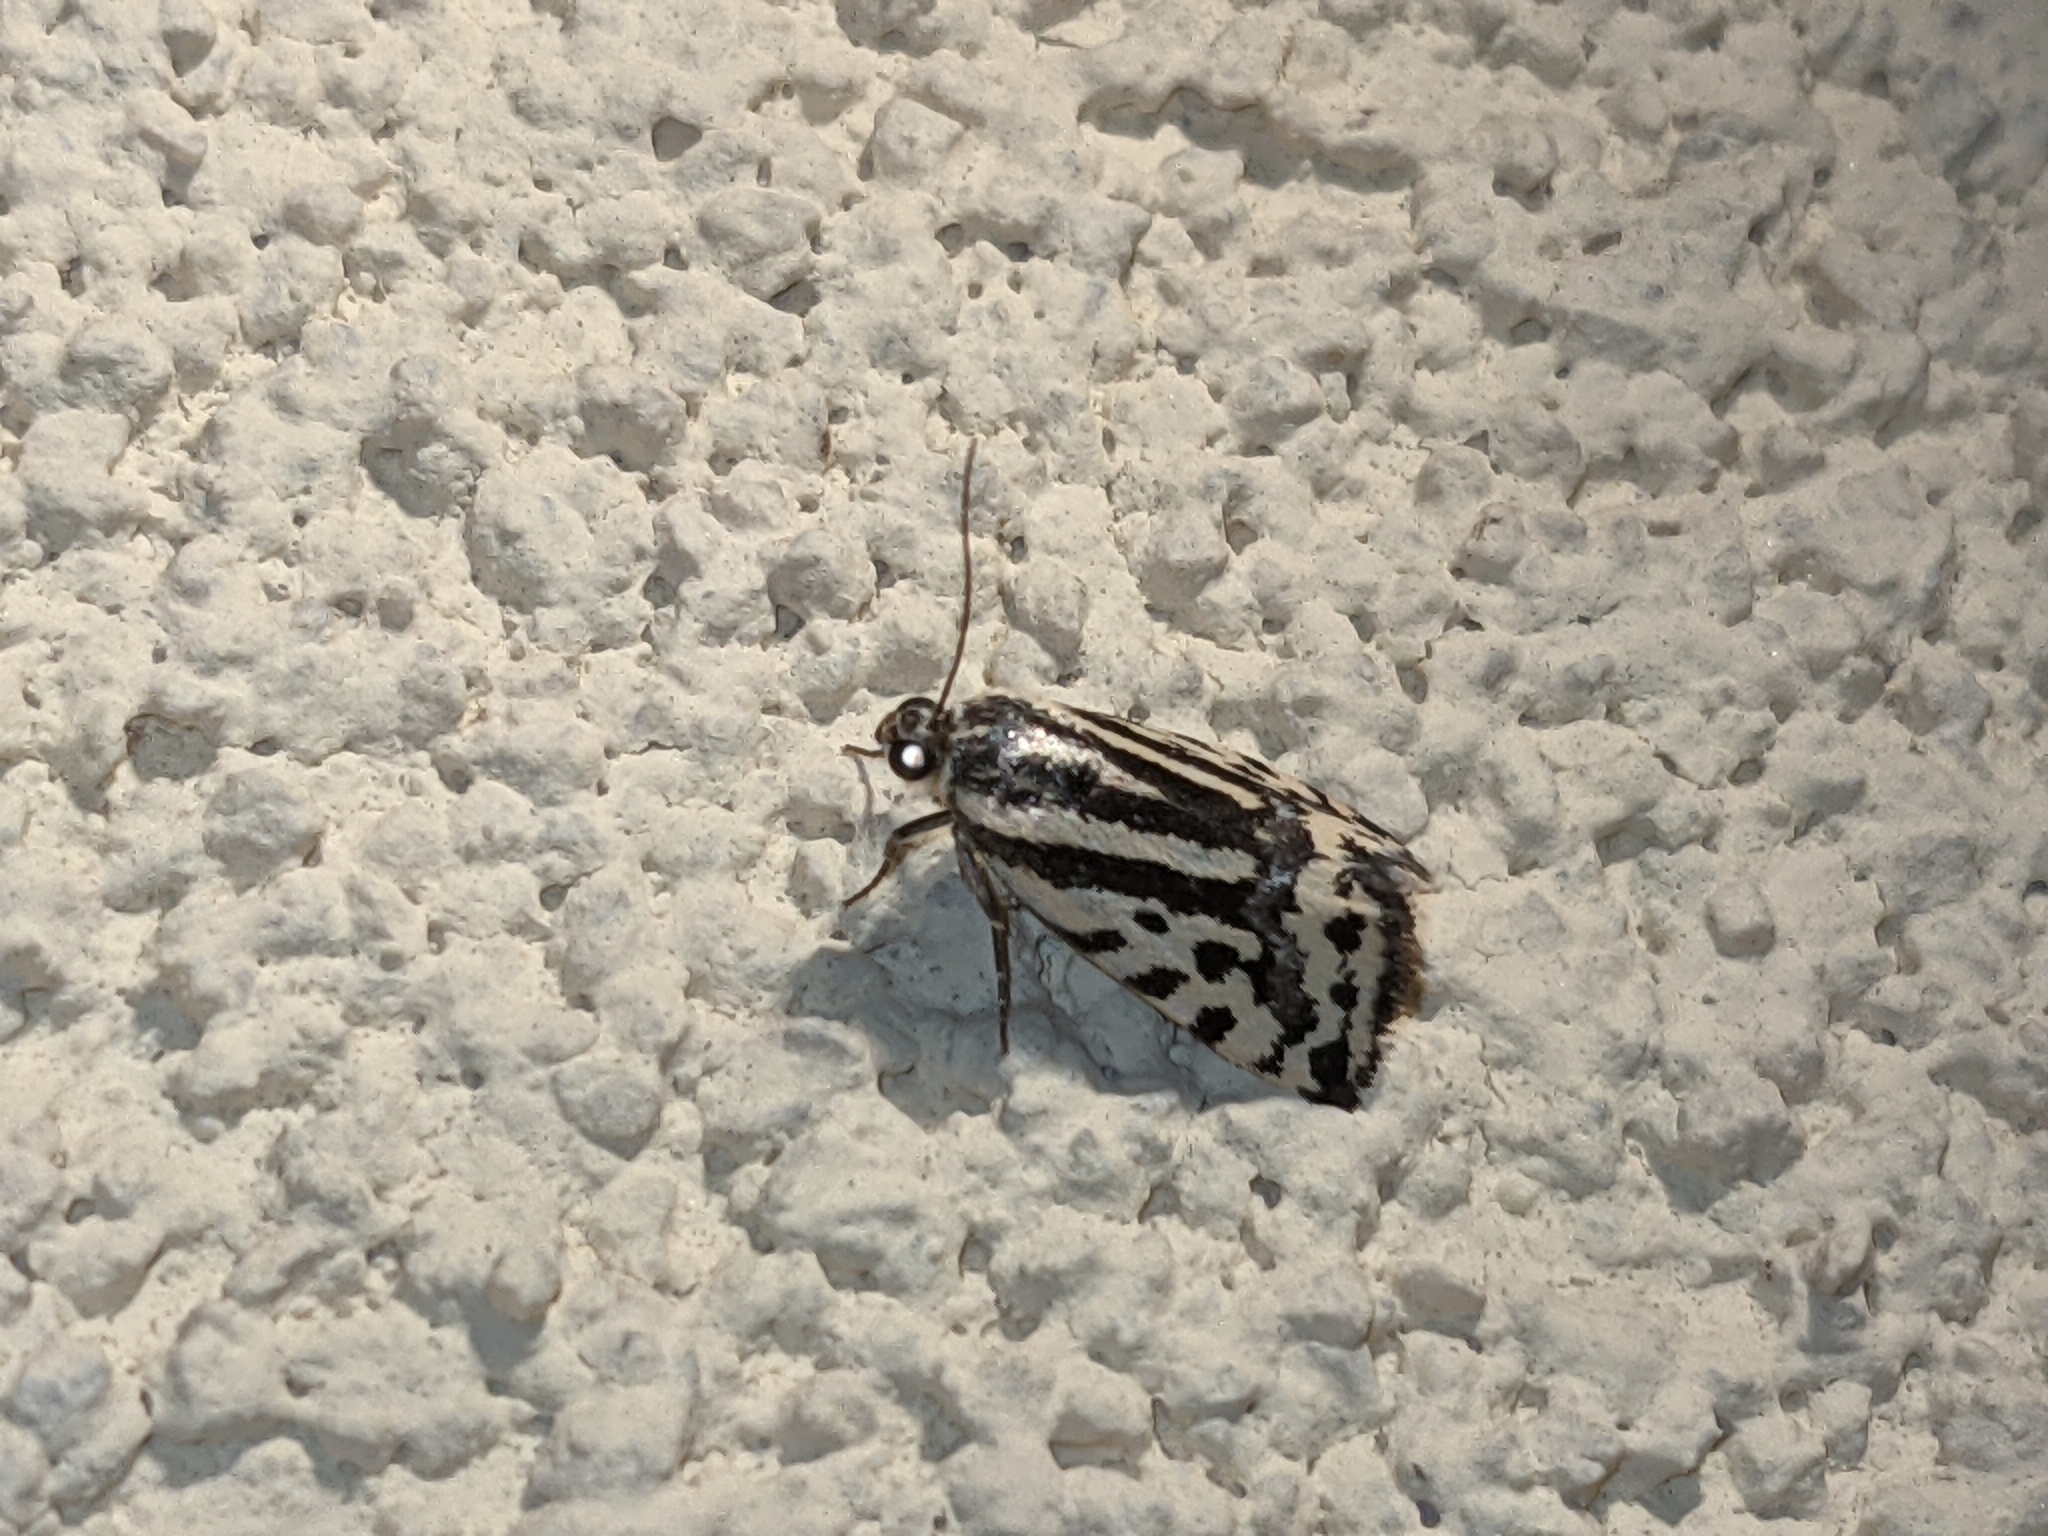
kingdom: Animalia
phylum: Arthropoda
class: Insecta
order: Lepidoptera
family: Noctuidae
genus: Acontia
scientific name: Acontia trabealis
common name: Spotted sulphur
